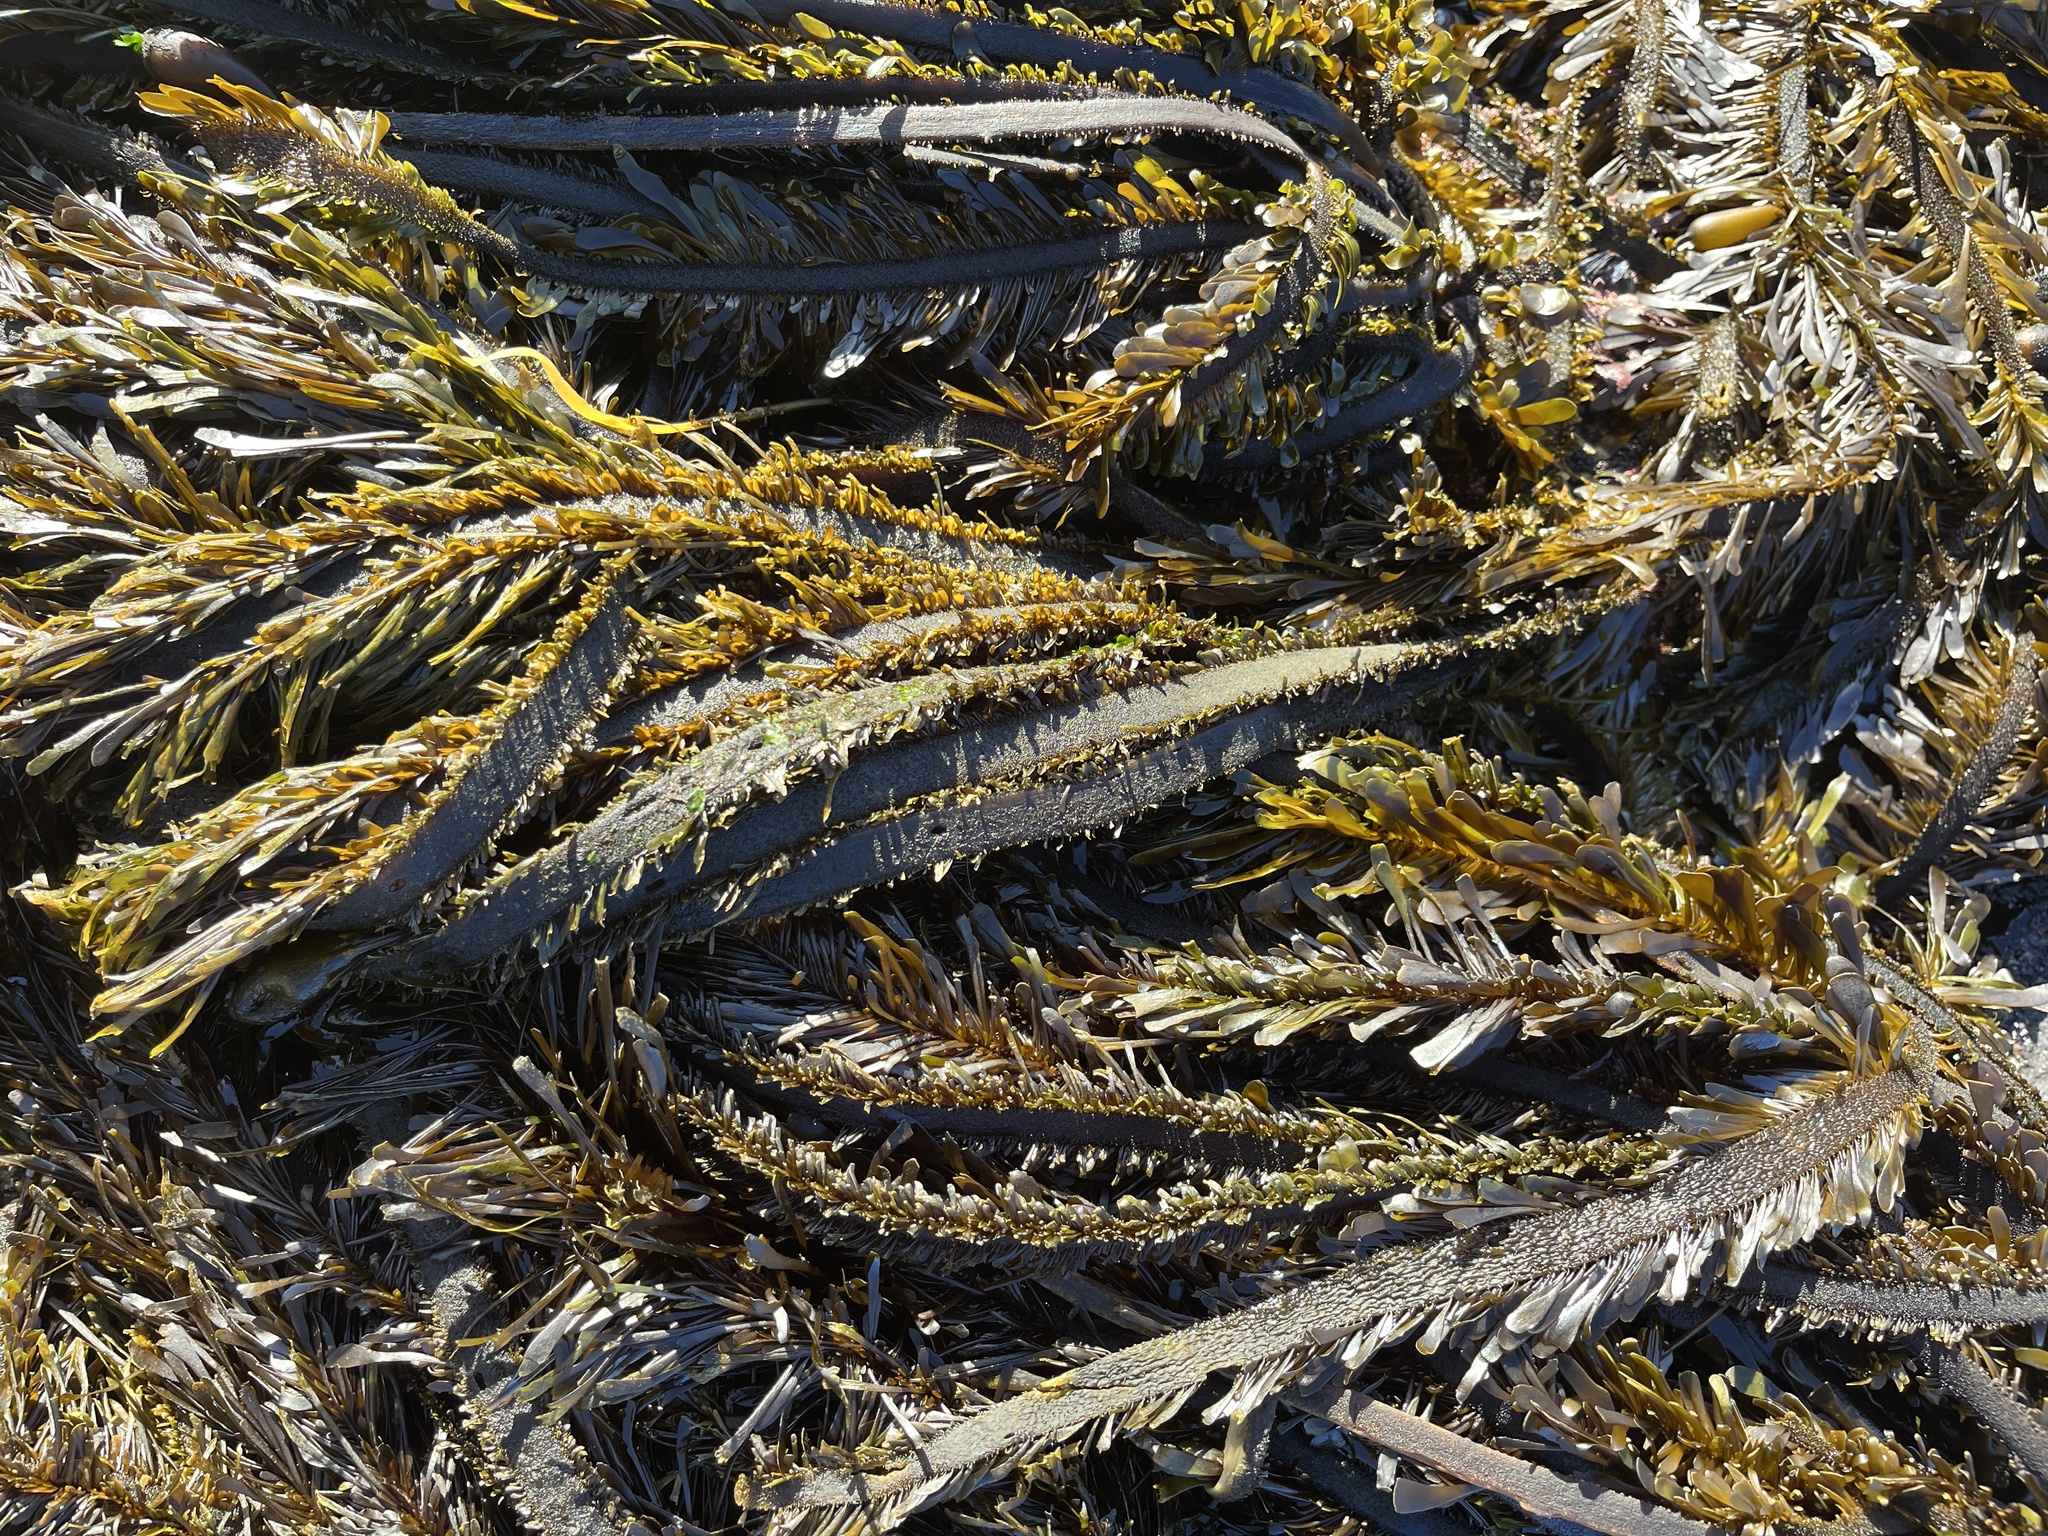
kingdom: Chromista
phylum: Ochrophyta
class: Phaeophyceae
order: Laminariales
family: Lessoniaceae
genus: Egregia
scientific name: Egregia menziesii
